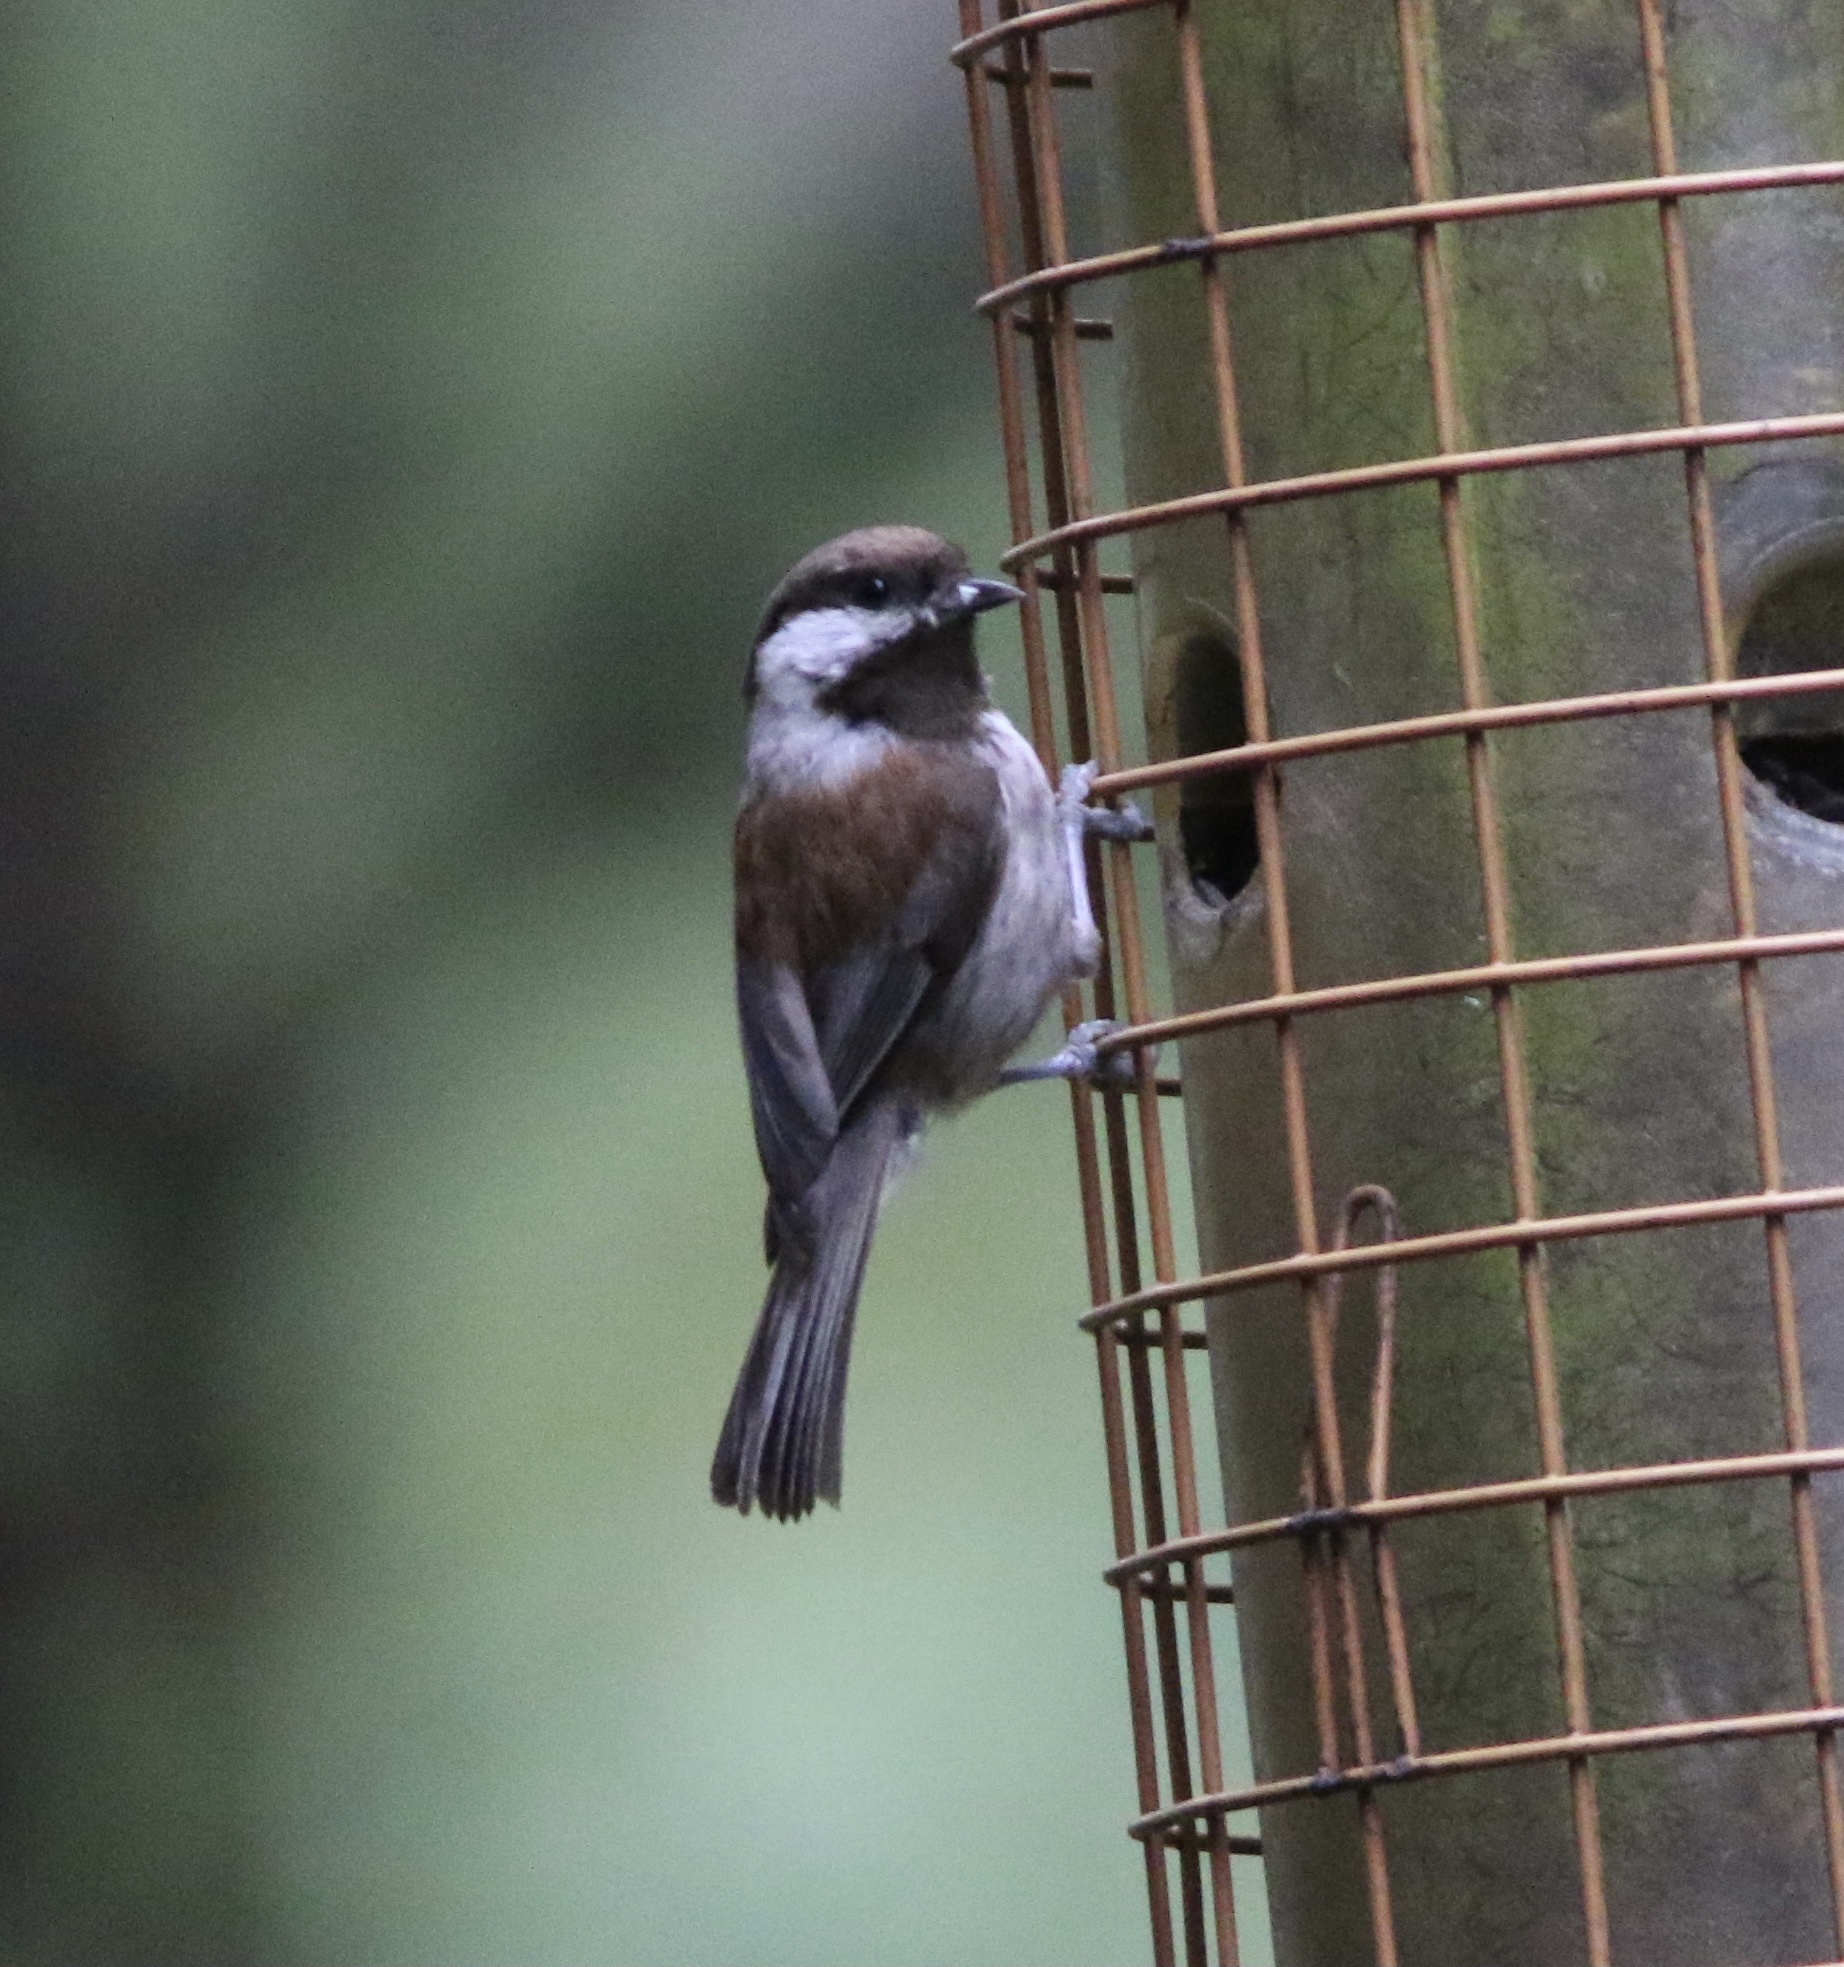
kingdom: Animalia
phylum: Chordata
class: Aves
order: Passeriformes
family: Paridae
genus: Poecile
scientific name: Poecile rufescens
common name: Chestnut-backed chickadee
